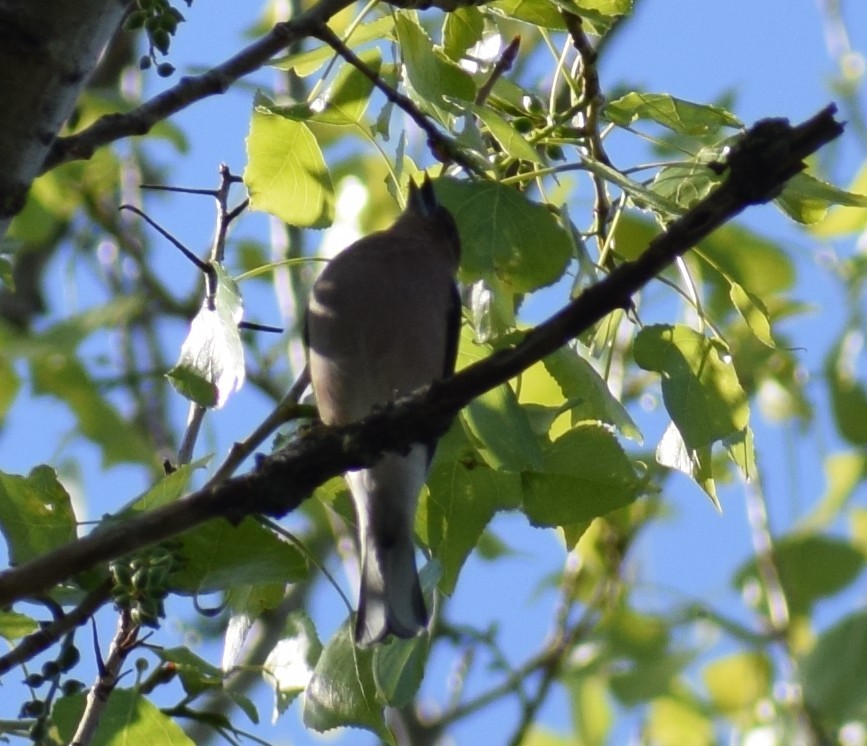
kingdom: Animalia
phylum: Chordata
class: Aves
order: Passeriformes
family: Fringillidae
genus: Fringilla
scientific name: Fringilla coelebs
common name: Common chaffinch
